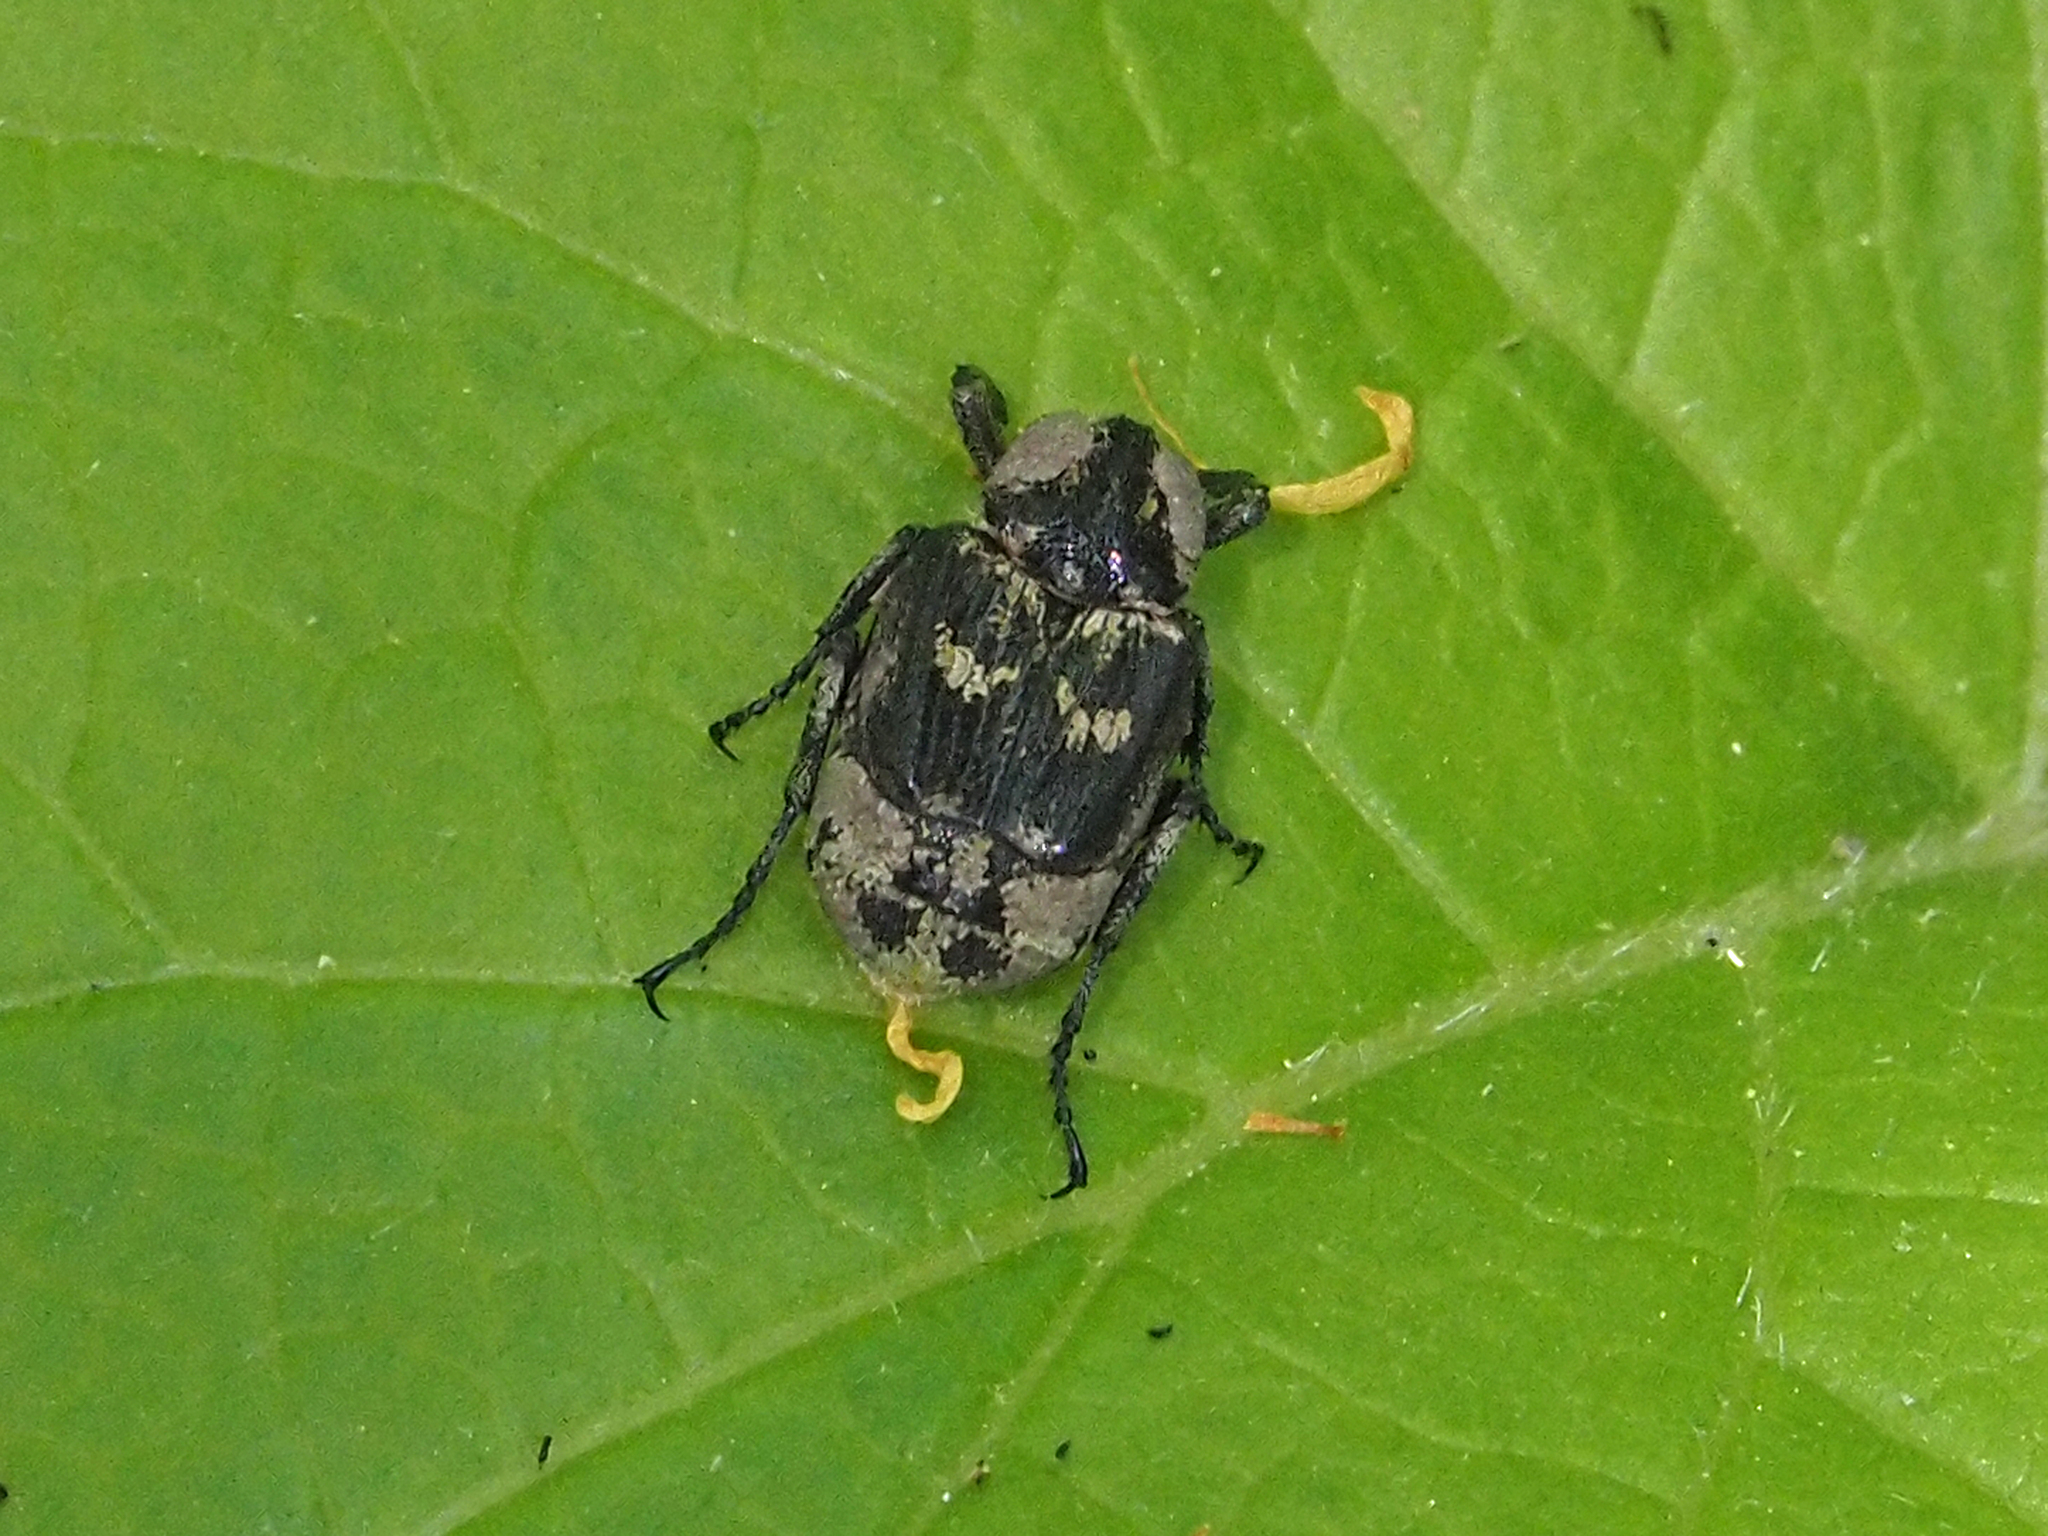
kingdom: Animalia
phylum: Arthropoda
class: Insecta
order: Coleoptera
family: Scarabaeidae
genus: Valgus
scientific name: Valgus hemipterus
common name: Bug flower chafer
